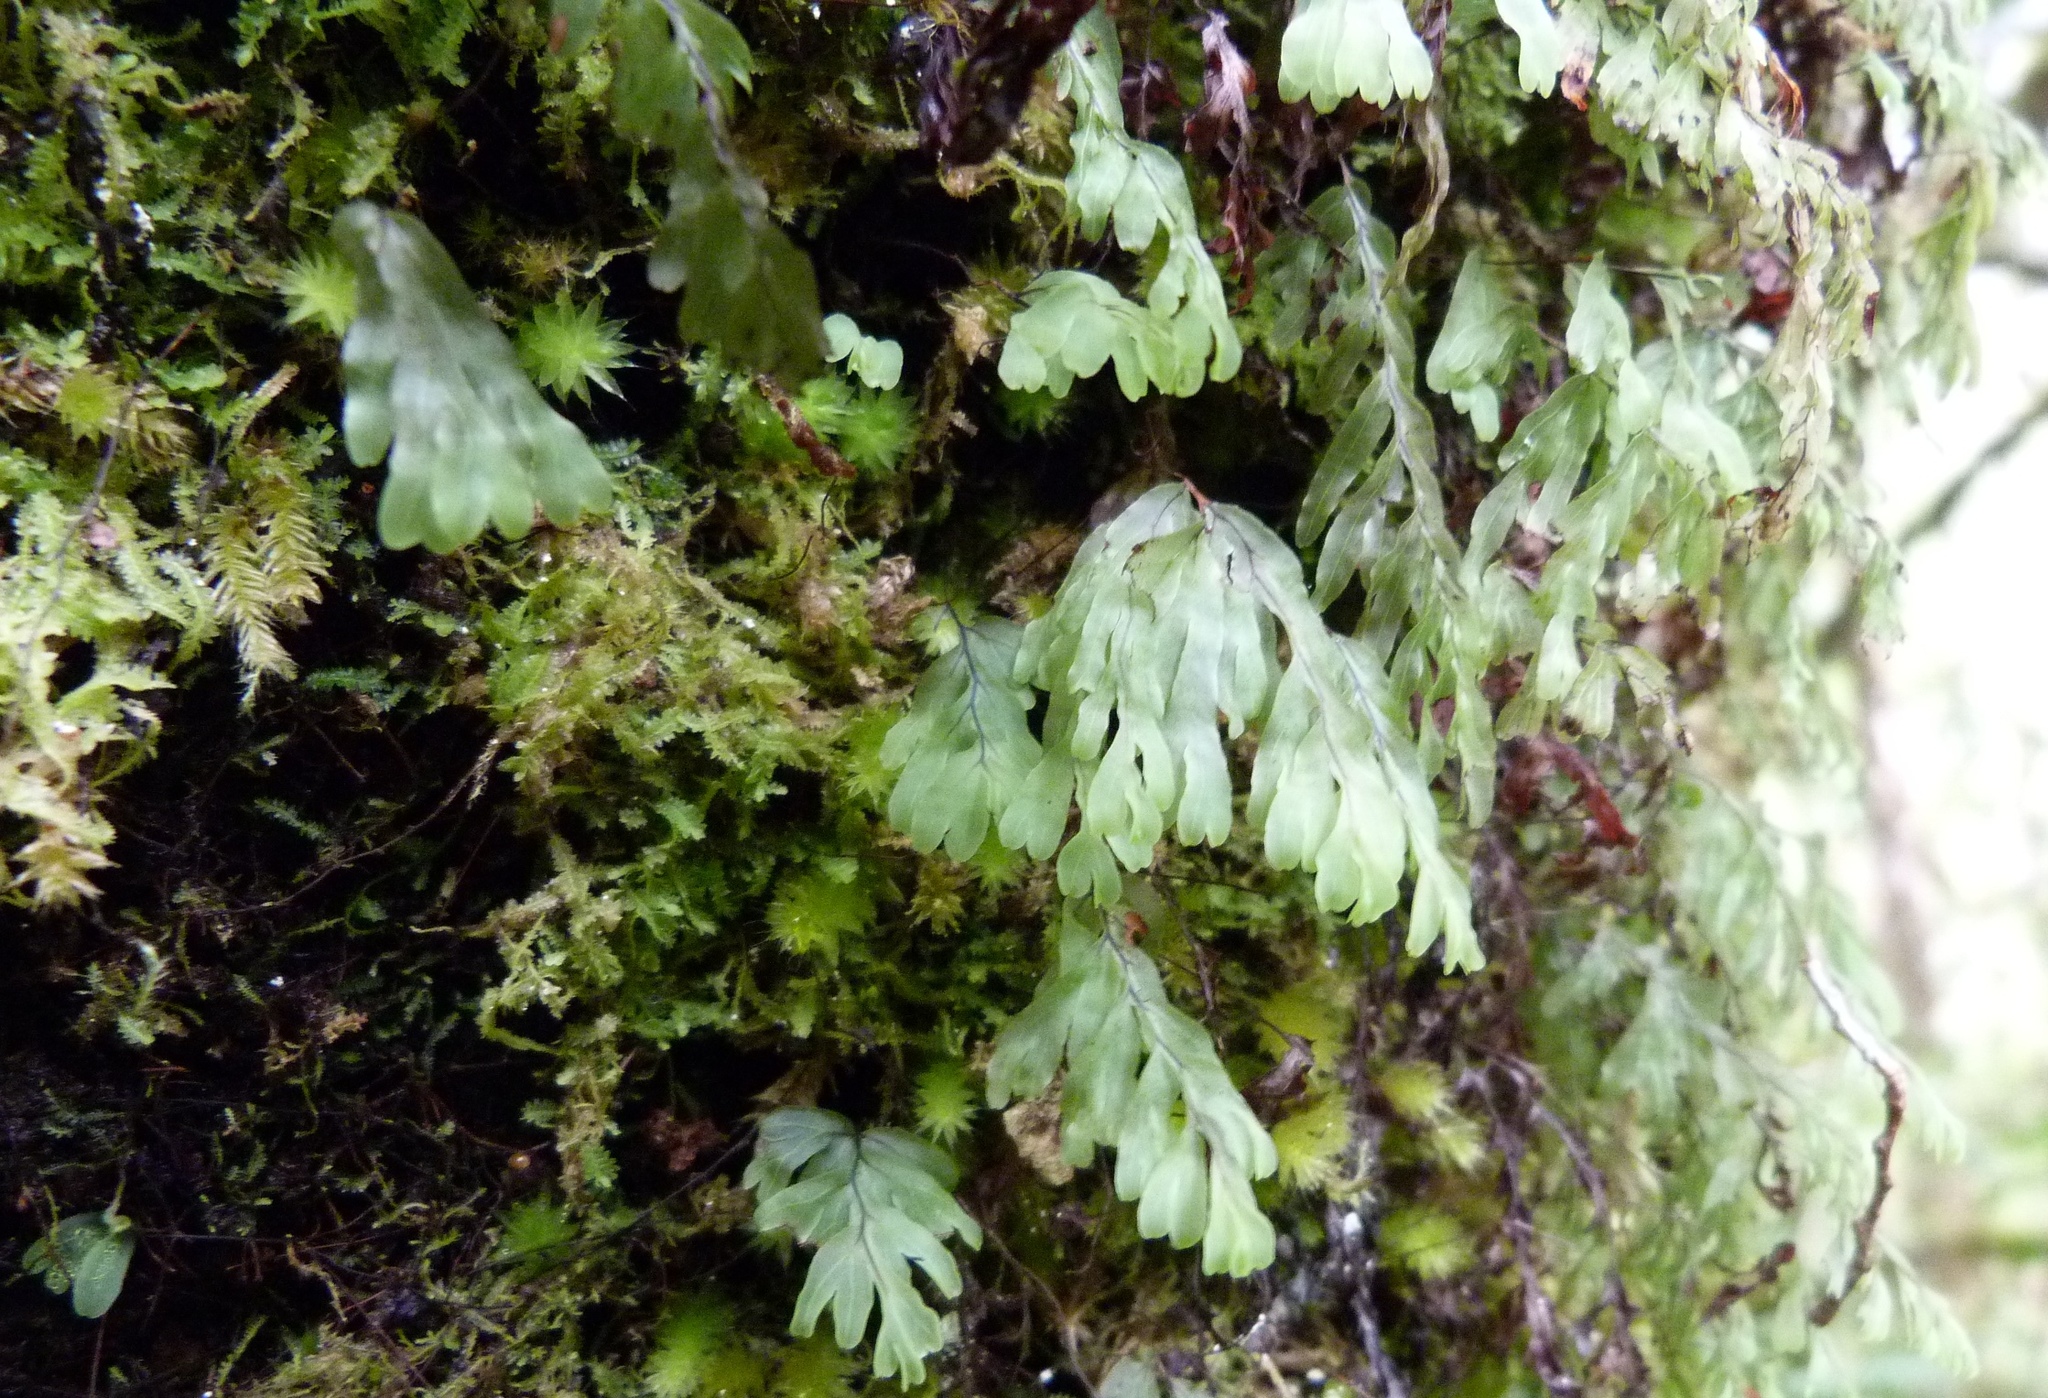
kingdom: Plantae
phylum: Tracheophyta
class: Polypodiopsida
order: Hymenophyllales
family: Hymenophyllaceae
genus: Hymenophyllum
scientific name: Hymenophyllum rarum
